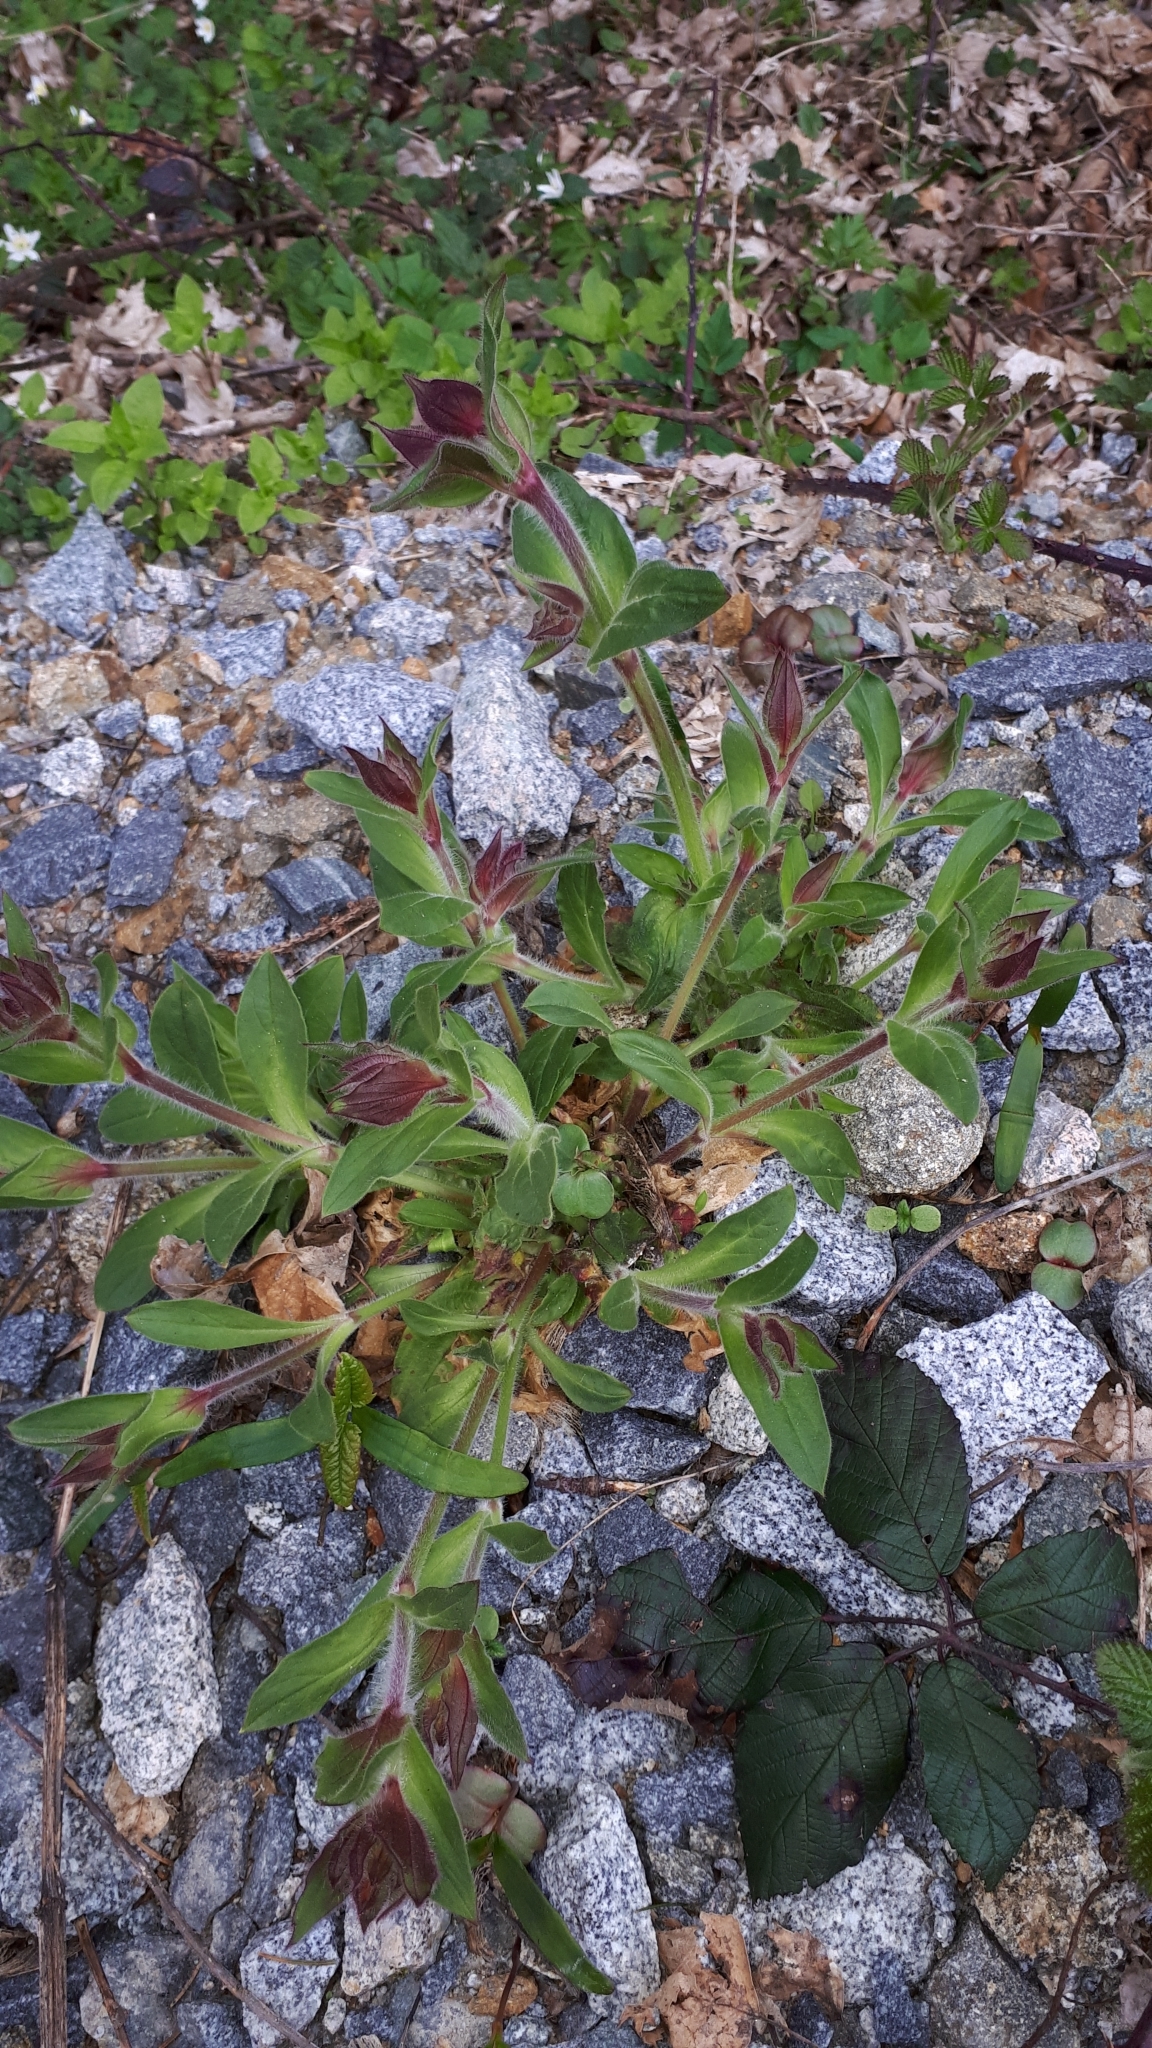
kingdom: Plantae
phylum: Tracheophyta
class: Magnoliopsida
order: Caryophyllales
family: Caryophyllaceae
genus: Silene
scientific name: Silene dioica
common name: Red campion
